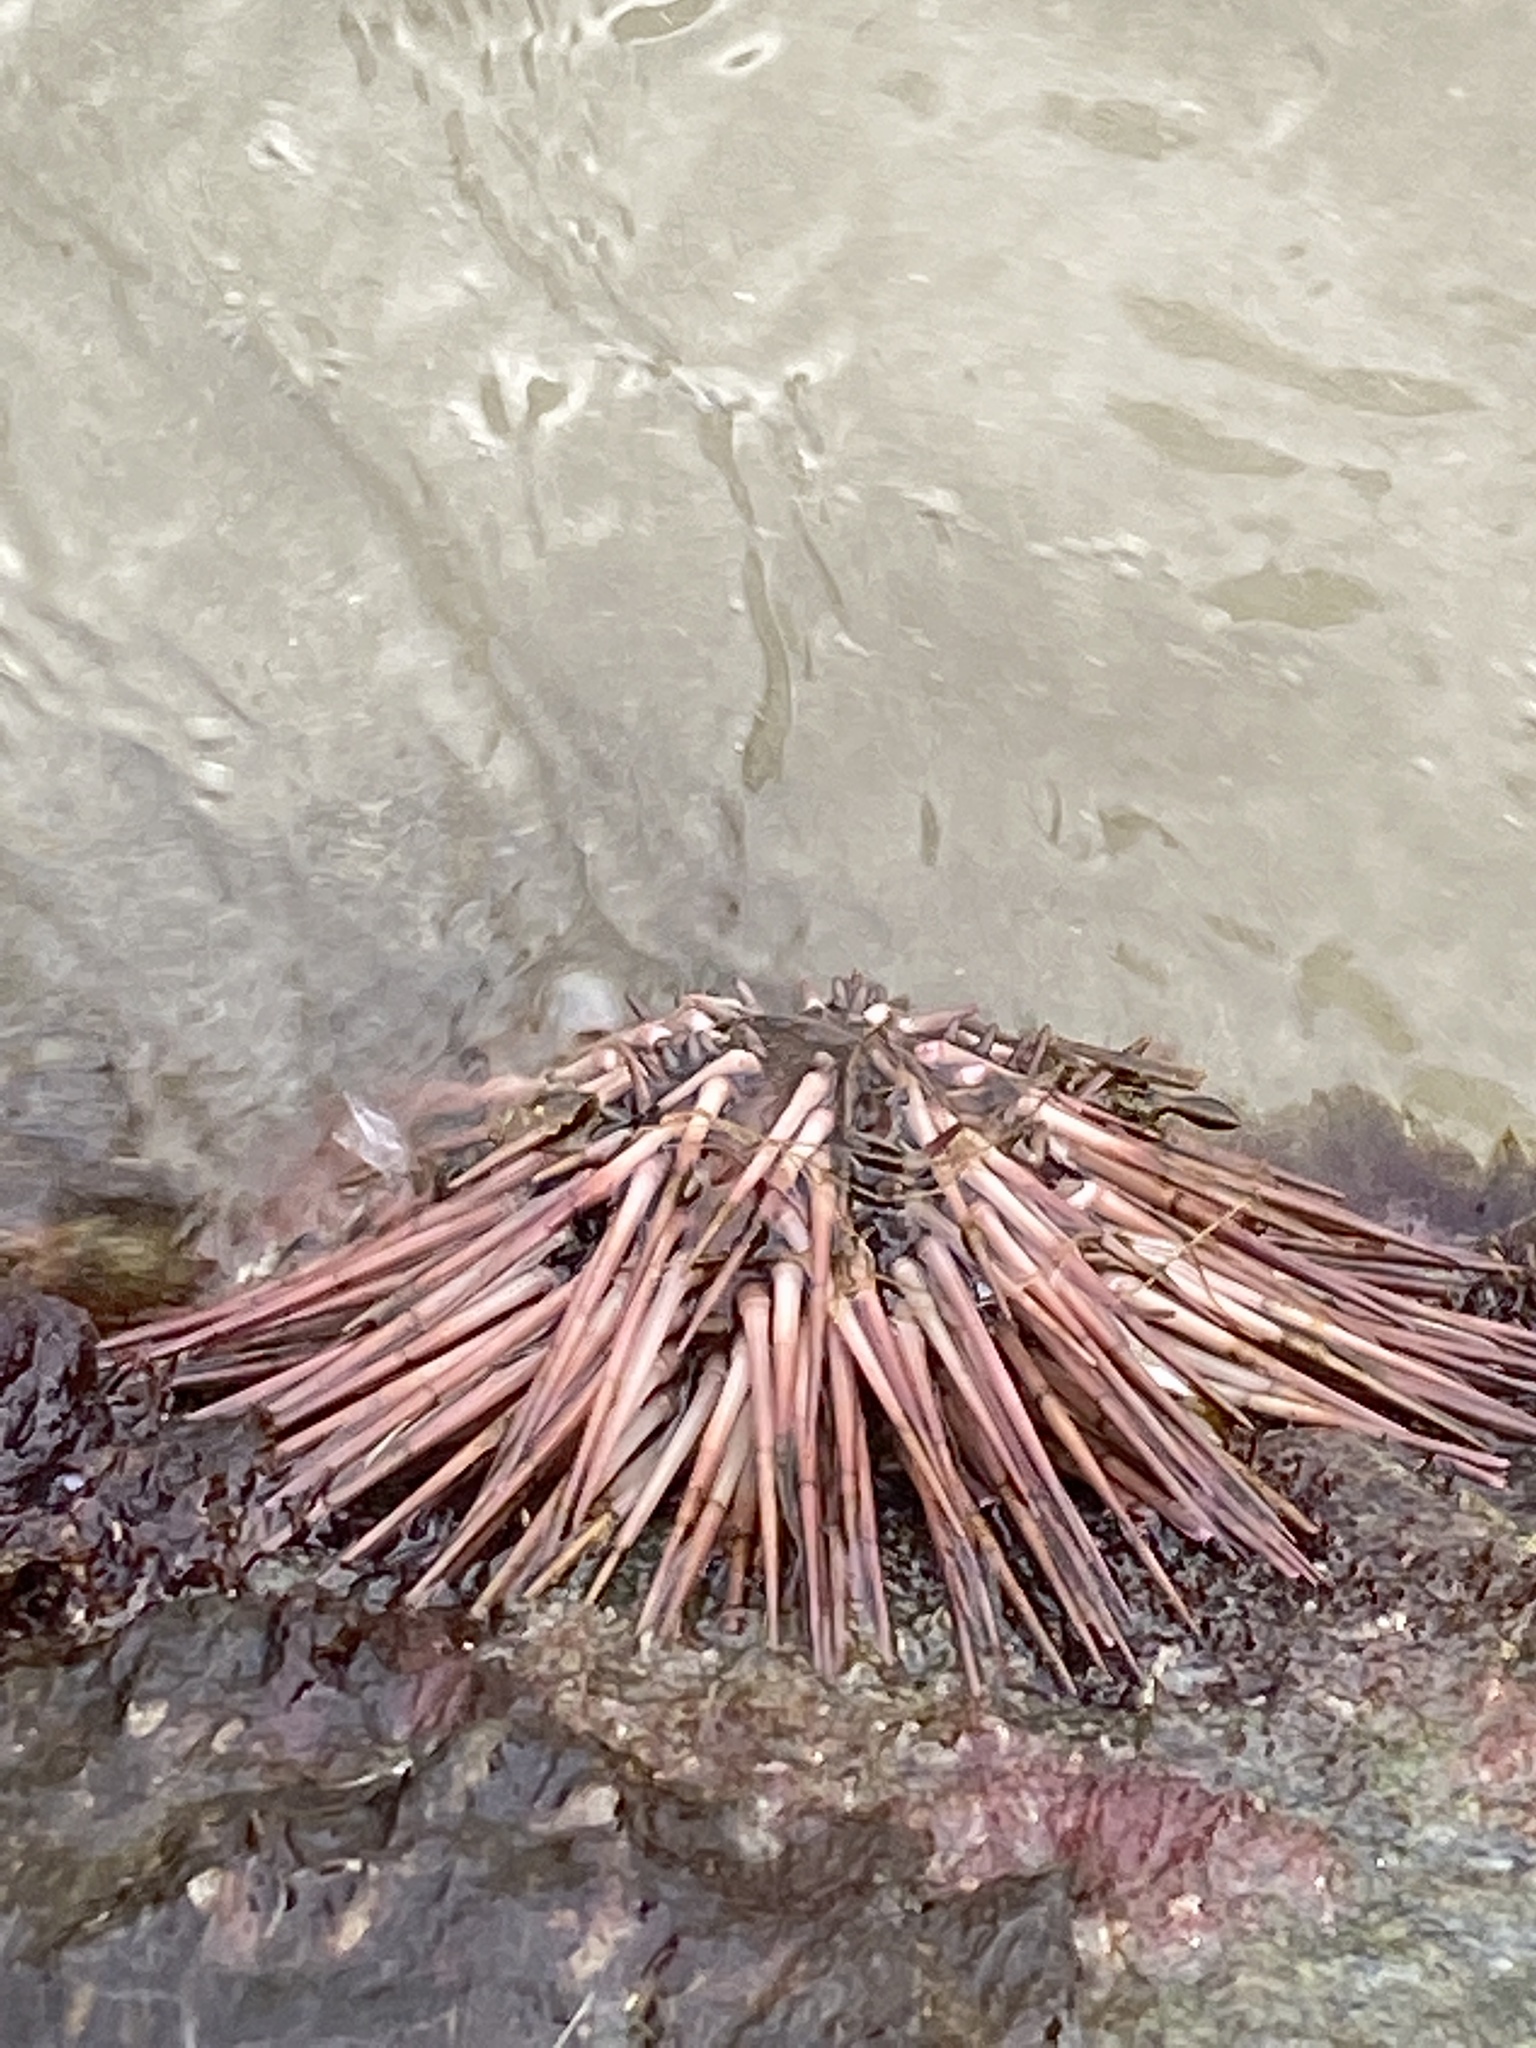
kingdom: Animalia
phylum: Echinodermata
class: Echinoidea
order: Arbacioida
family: Arbaciidae
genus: Arbacia
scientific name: Arbacia punctulata
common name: Purple-spined sea urchin
